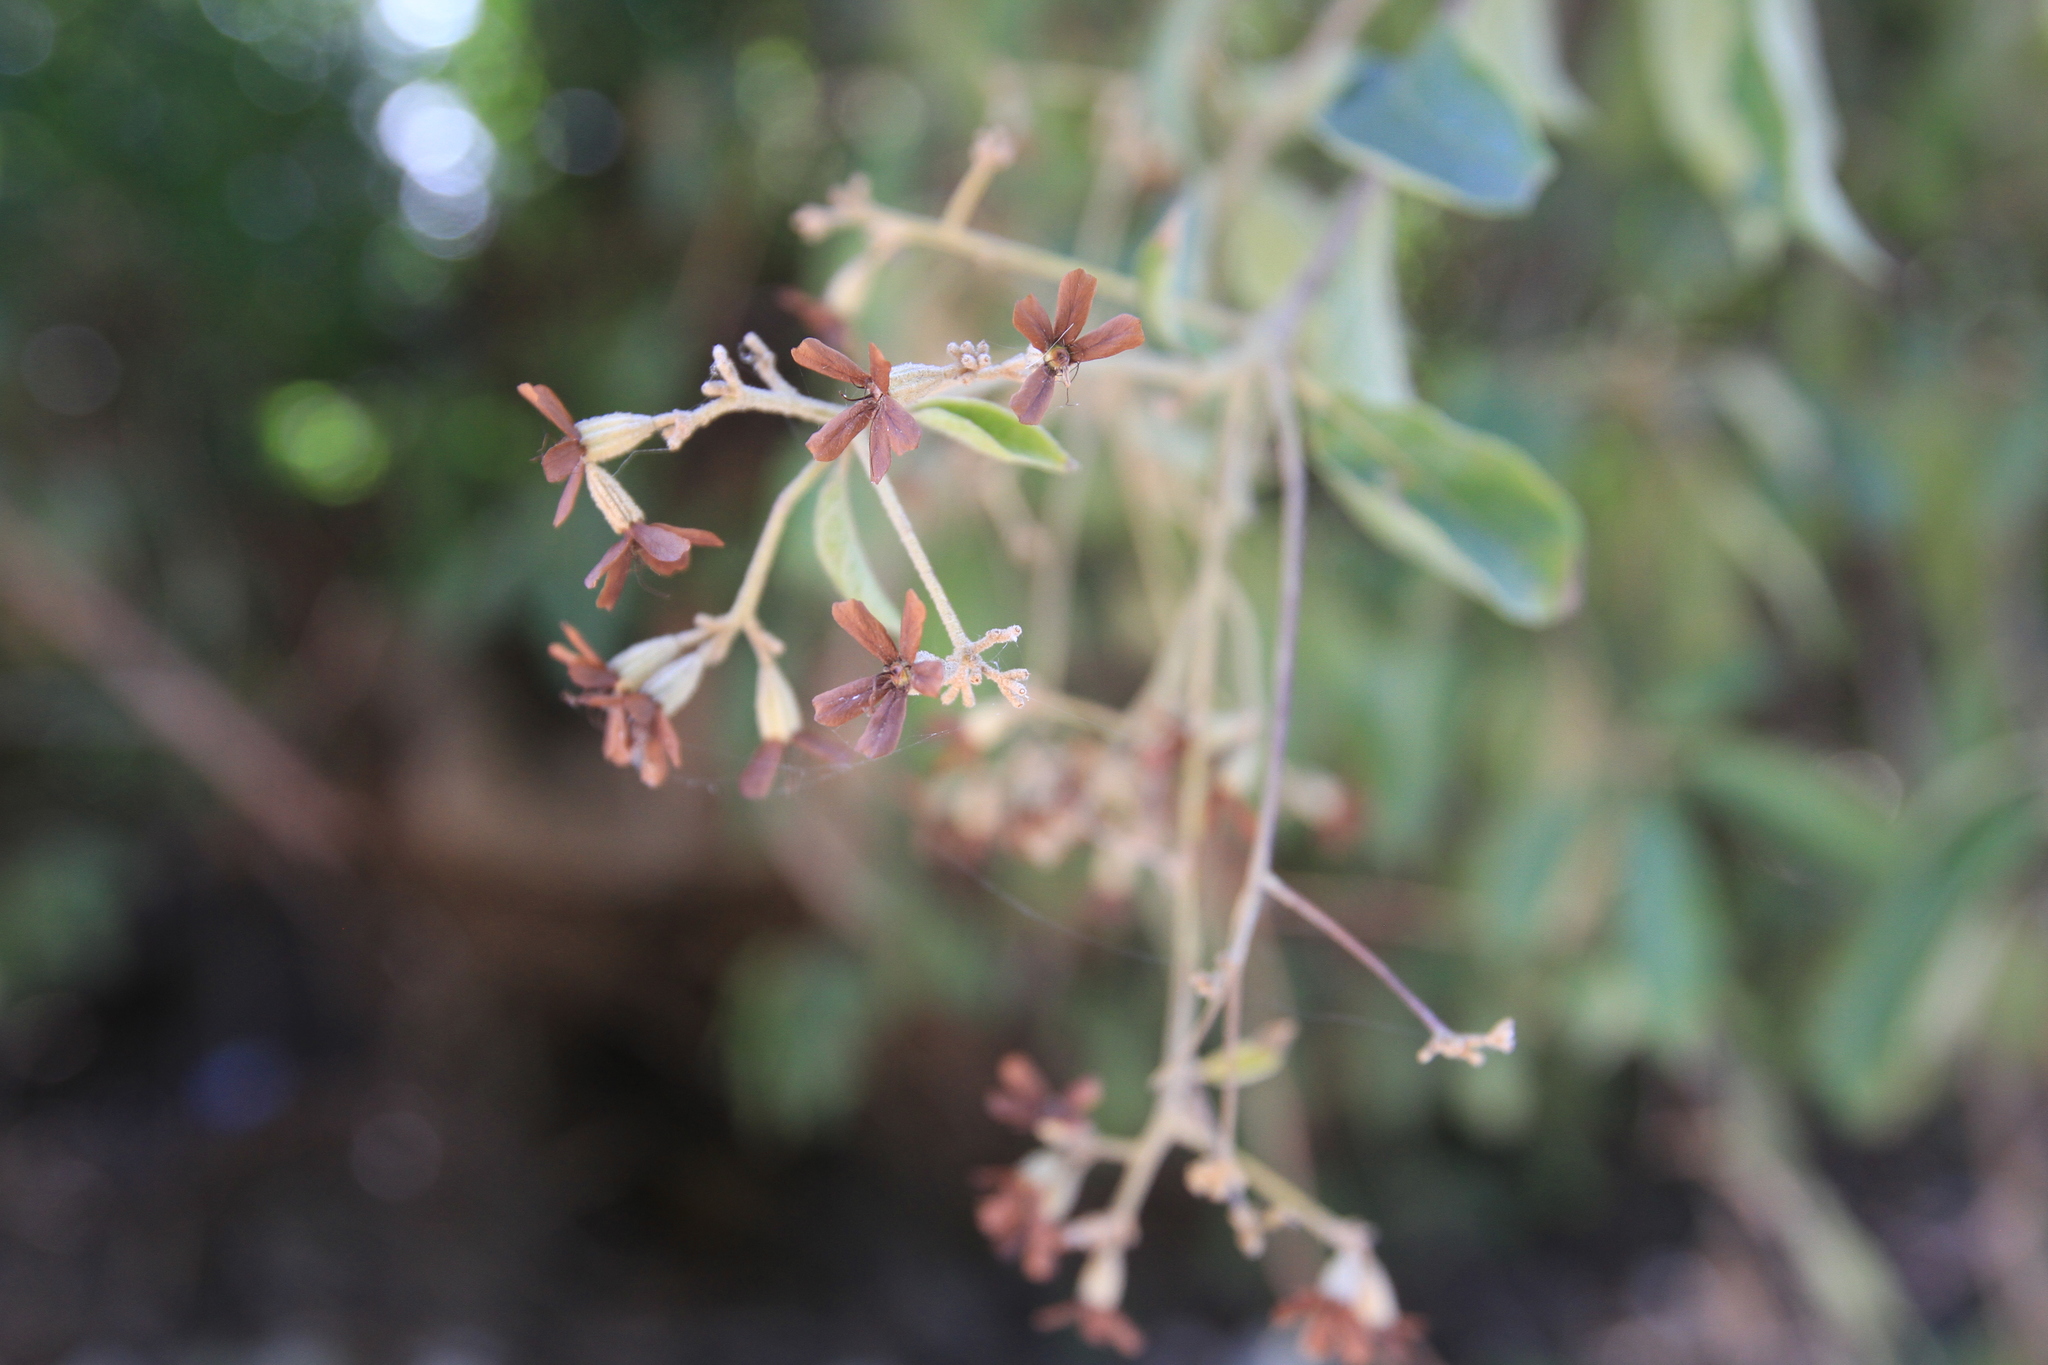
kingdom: Plantae
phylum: Tracheophyta
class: Magnoliopsida
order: Boraginales
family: Cordiaceae
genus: Cordia
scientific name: Cordia alliodora
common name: Spanish elm
